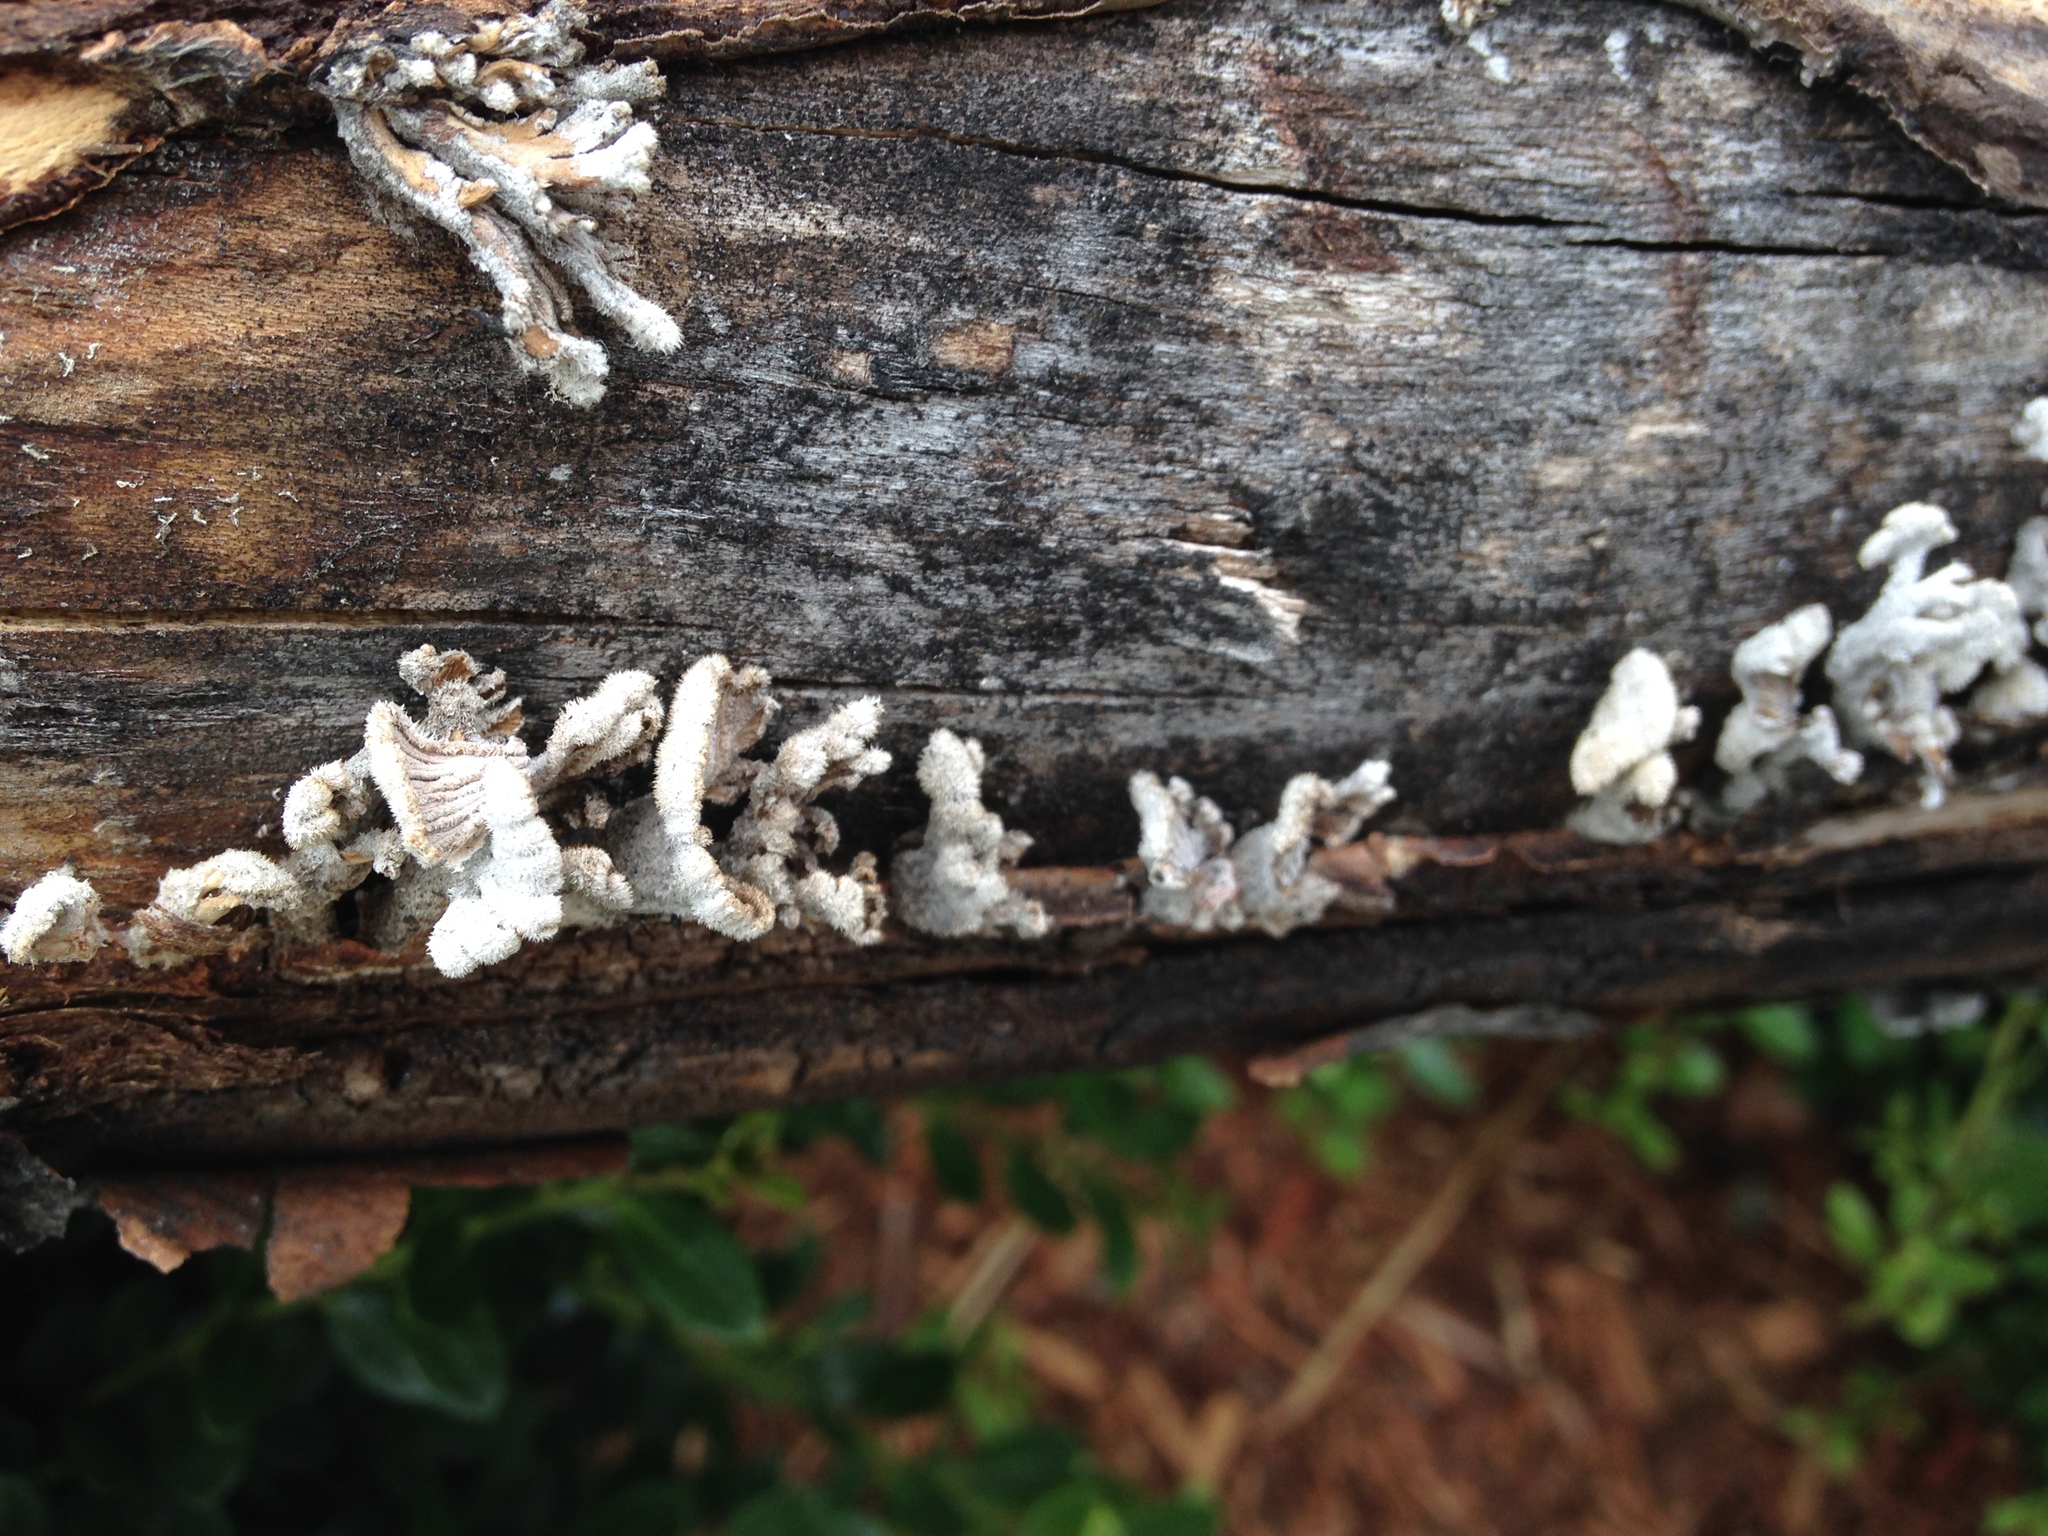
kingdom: Fungi
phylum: Basidiomycota
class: Agaricomycetes
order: Agaricales
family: Schizophyllaceae
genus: Schizophyllum
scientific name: Schizophyllum commune
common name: Common porecrust
